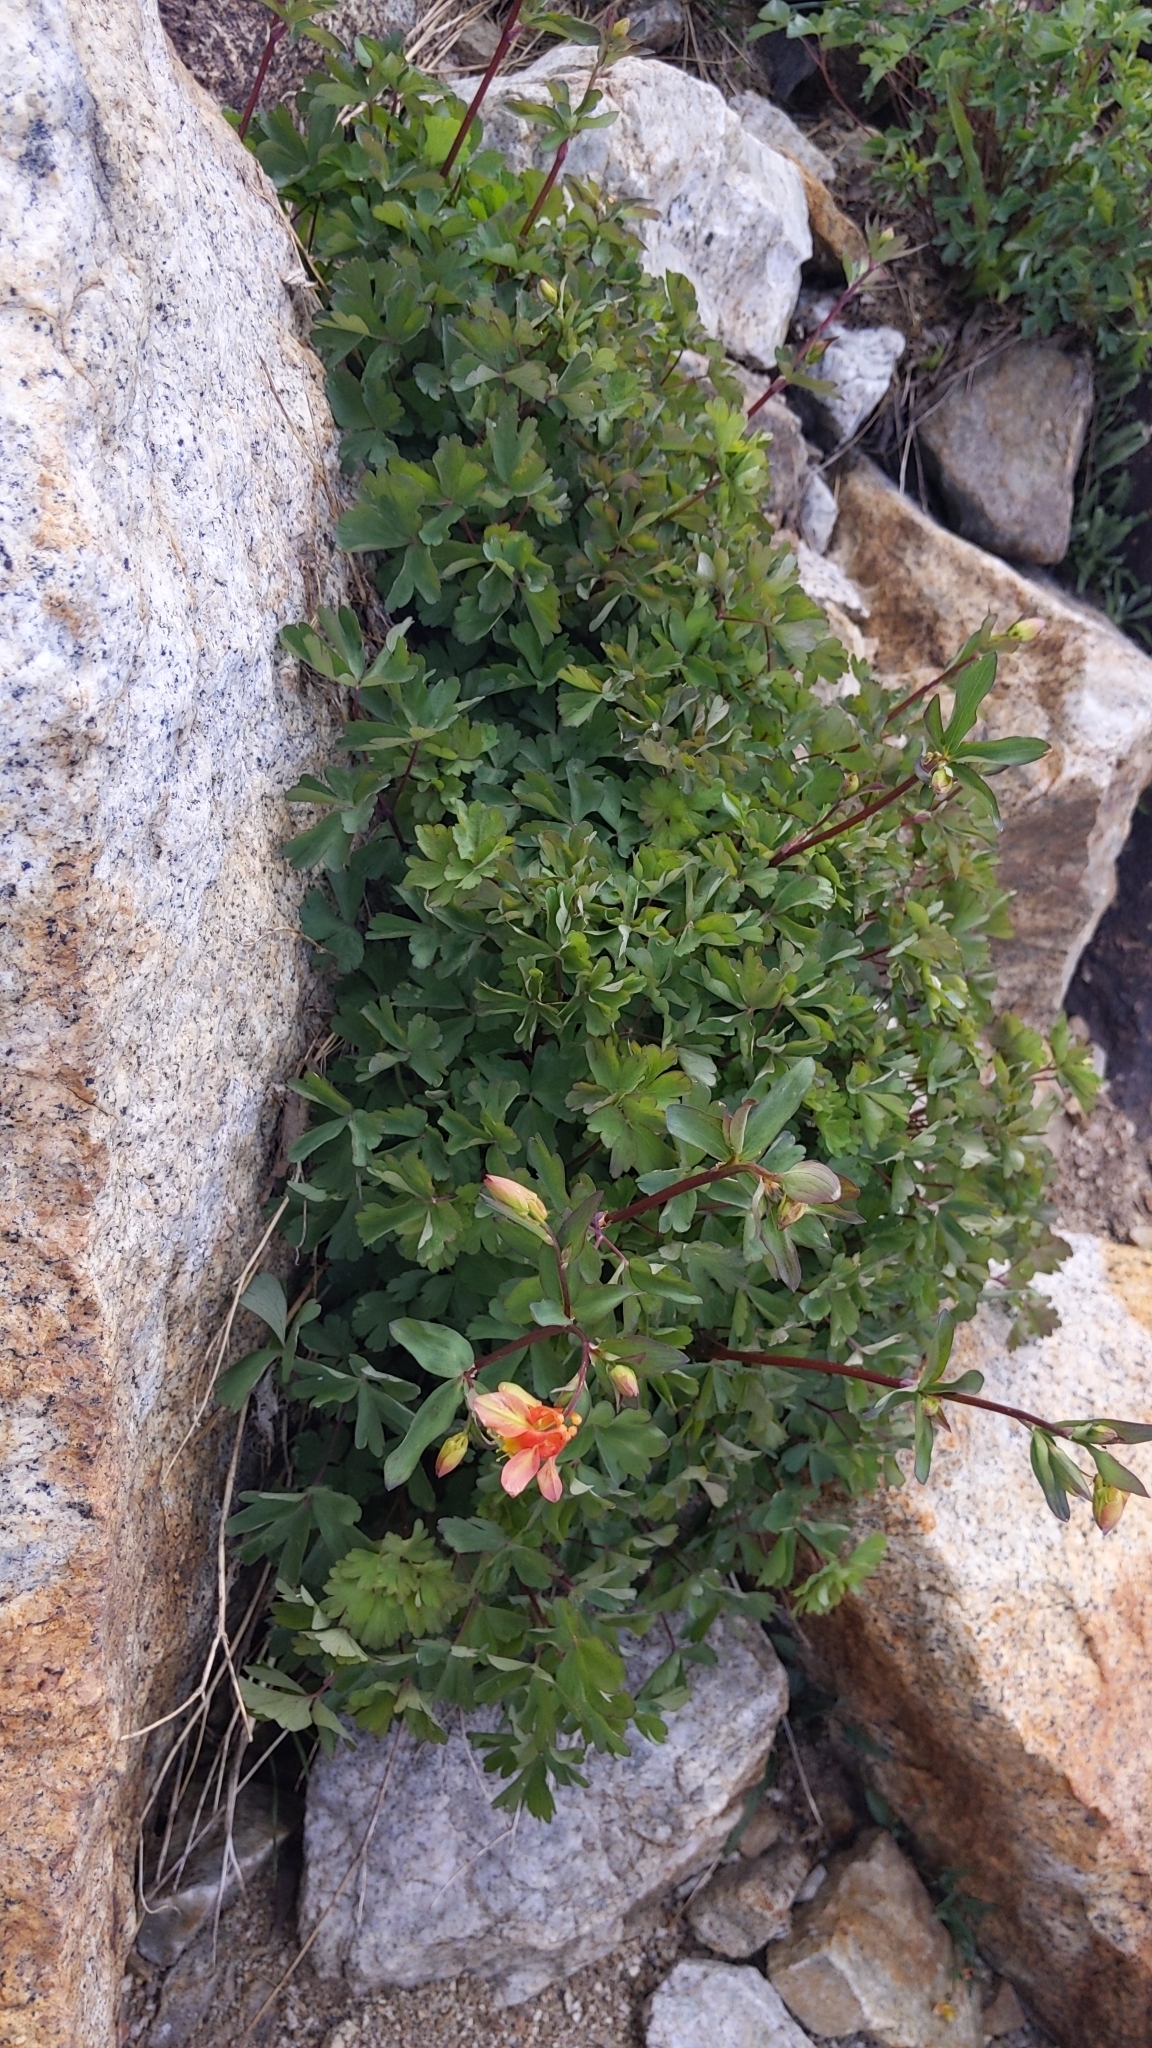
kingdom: Plantae
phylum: Tracheophyta
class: Magnoliopsida
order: Ranunculales
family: Ranunculaceae
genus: Aquilegia
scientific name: Aquilegia pubescens
